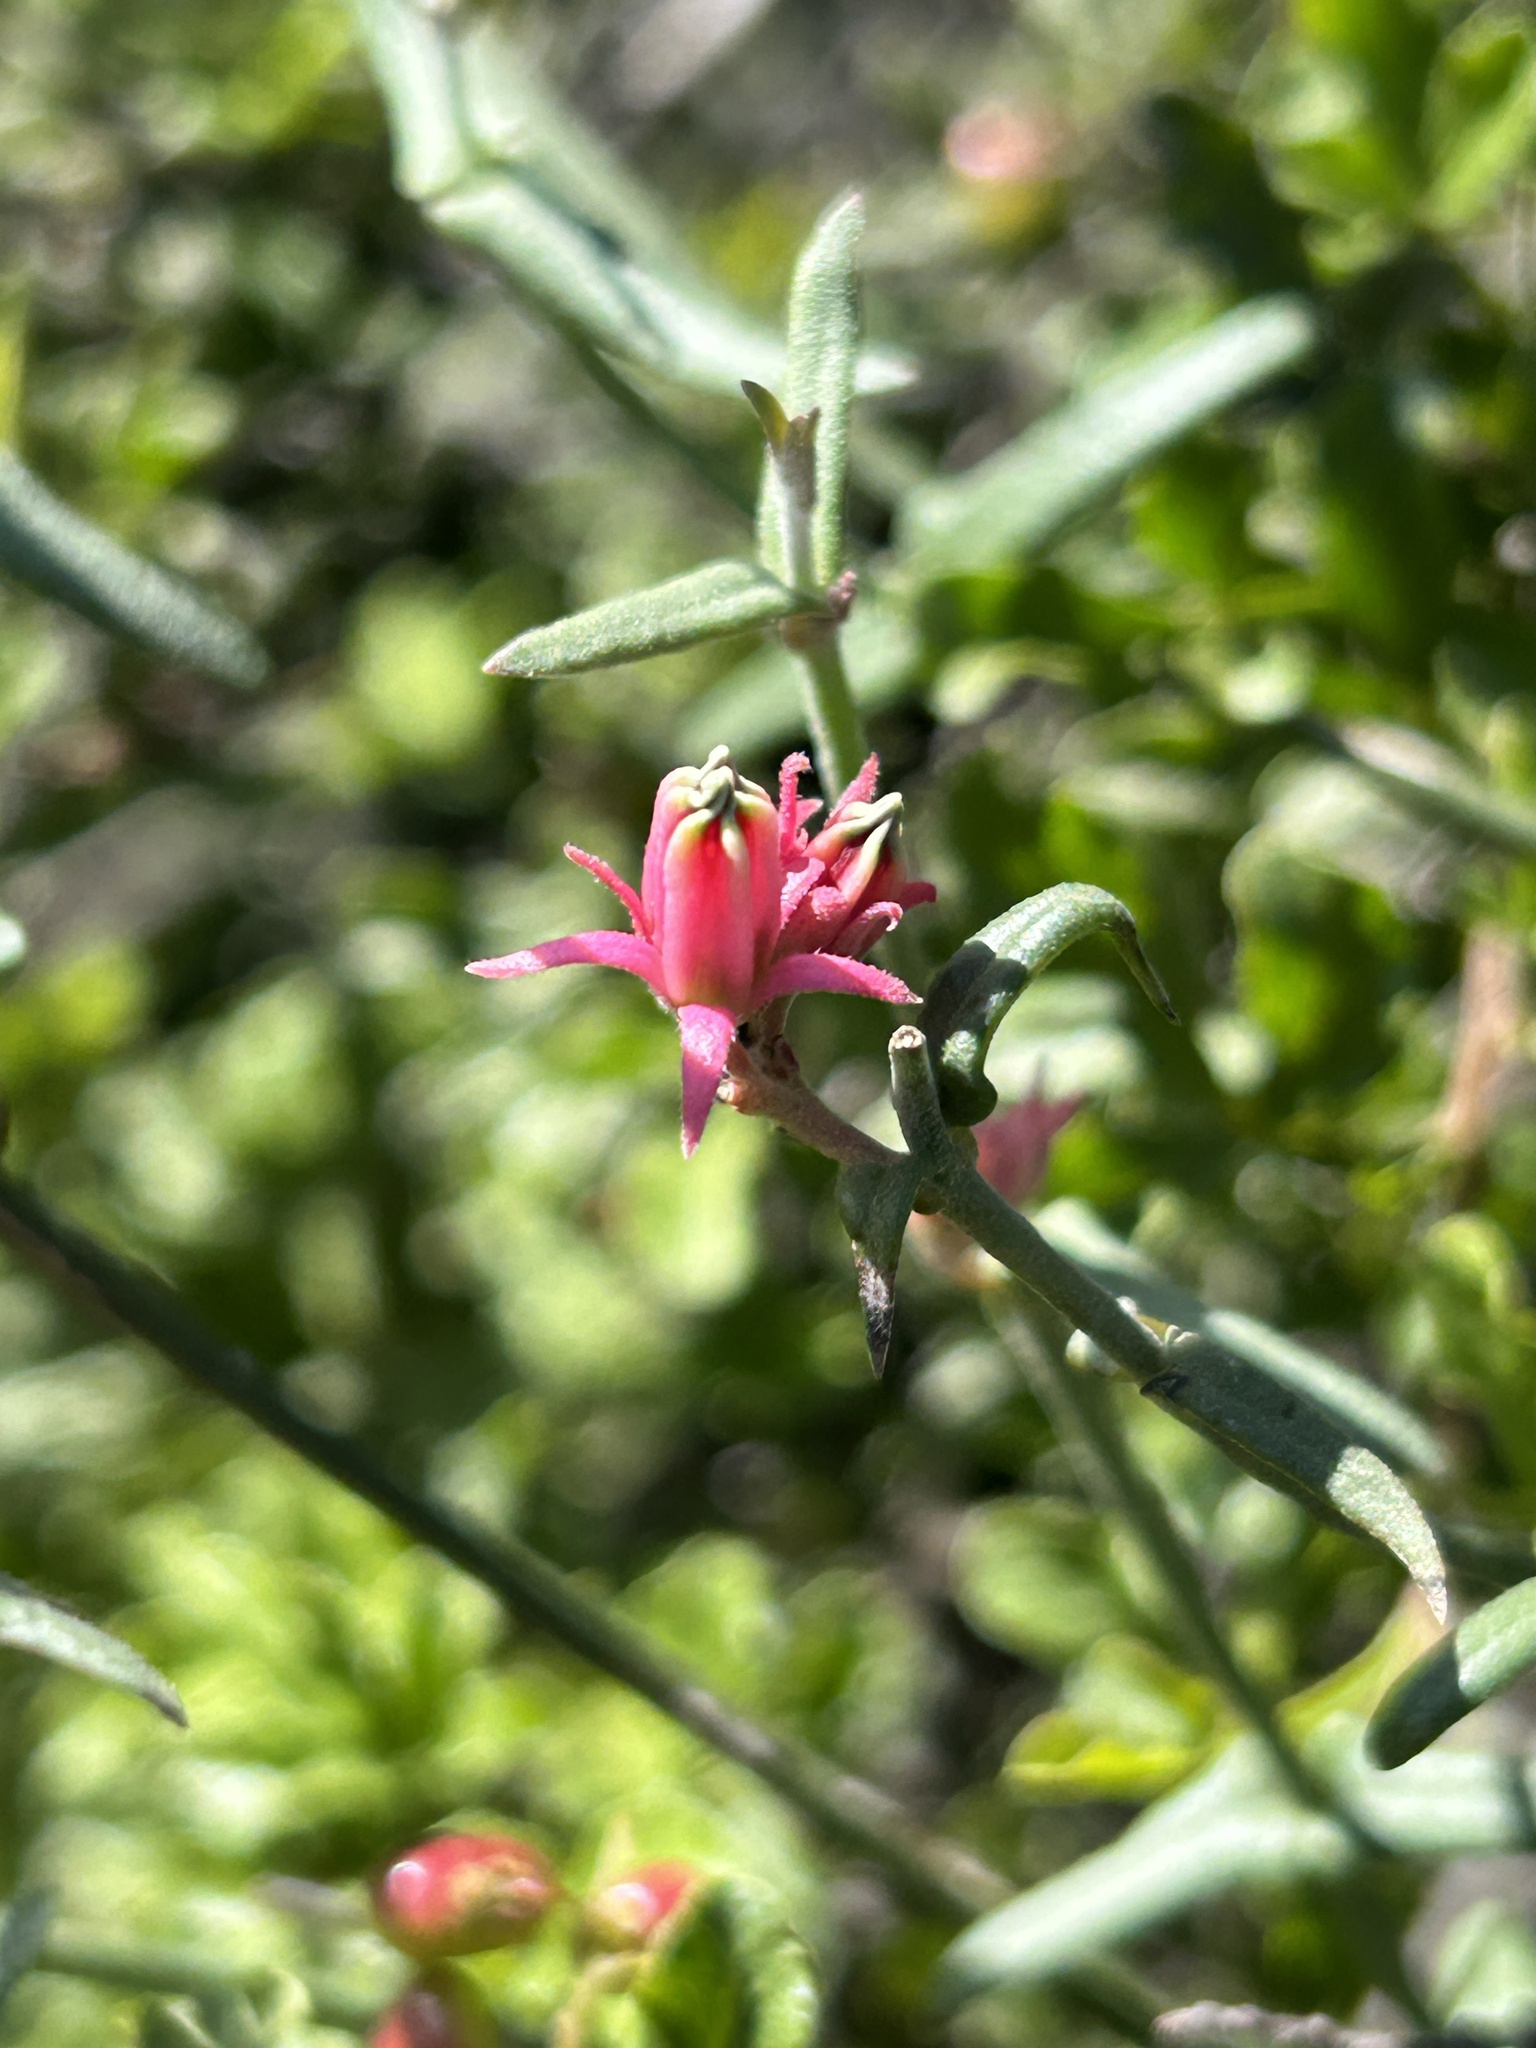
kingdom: Plantae
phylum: Tracheophyta
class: Magnoliopsida
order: Gentianales
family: Apocynaceae
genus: Microloma
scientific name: Microloma sagittatum
